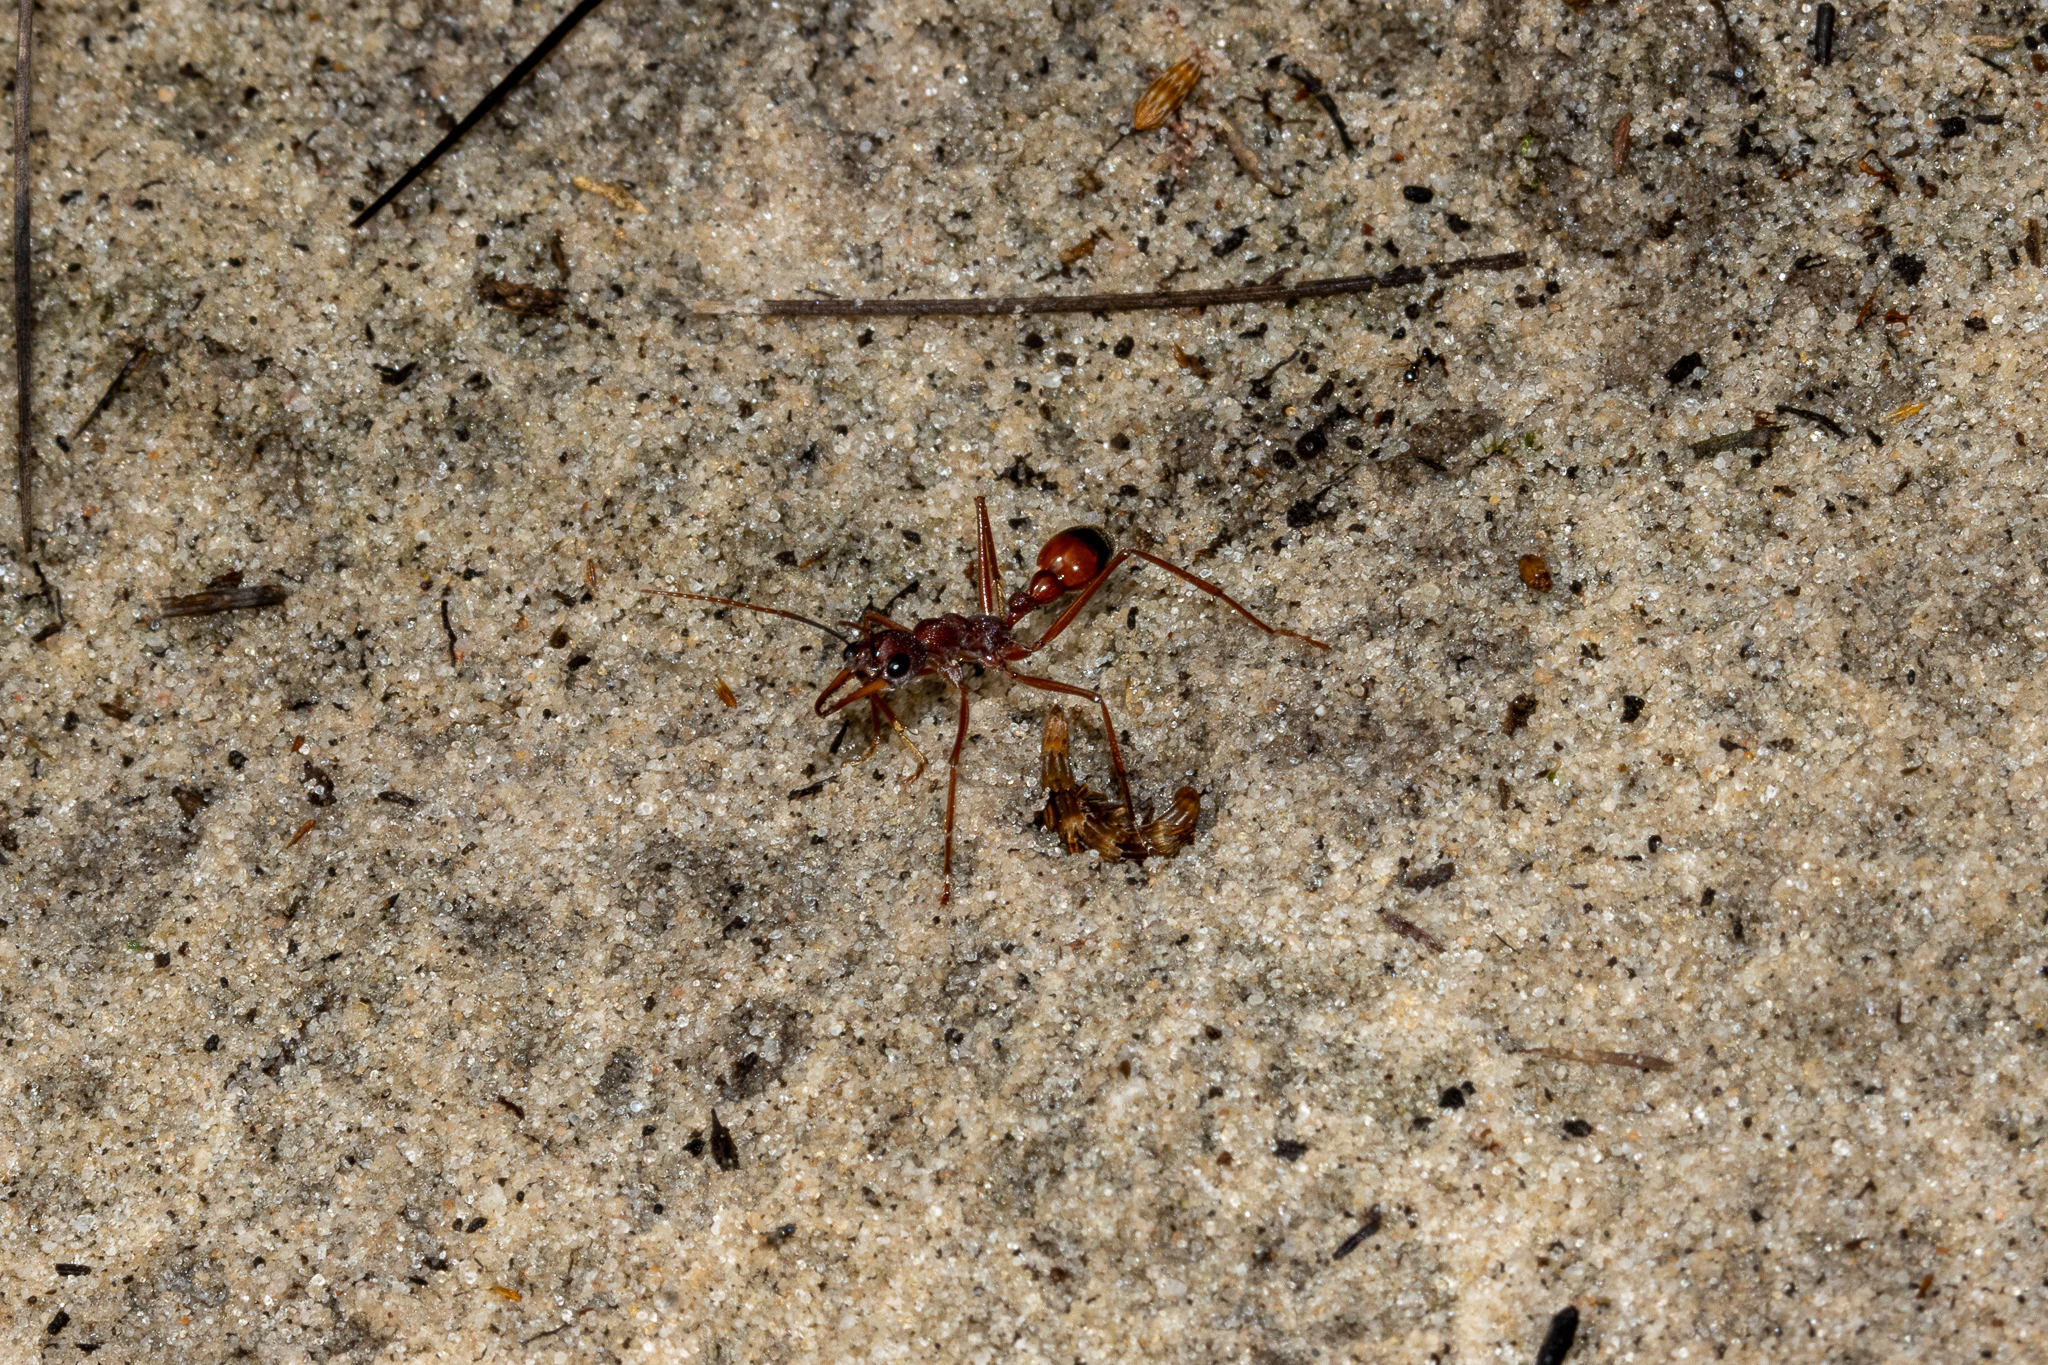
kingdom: Animalia
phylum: Arthropoda
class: Insecta
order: Hymenoptera
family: Formicidae
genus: Myrmecia
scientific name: Myrmecia nigriscapa
